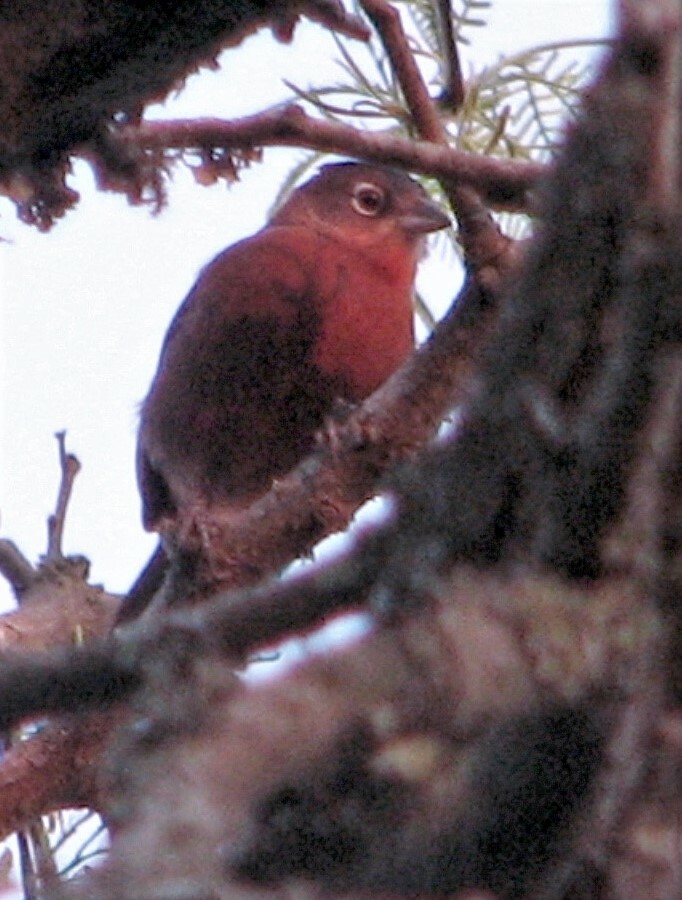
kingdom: Animalia
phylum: Chordata
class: Aves
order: Passeriformes
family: Thraupidae
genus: Coryphospingus
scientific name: Coryphospingus cucullatus
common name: Red pileated finch
